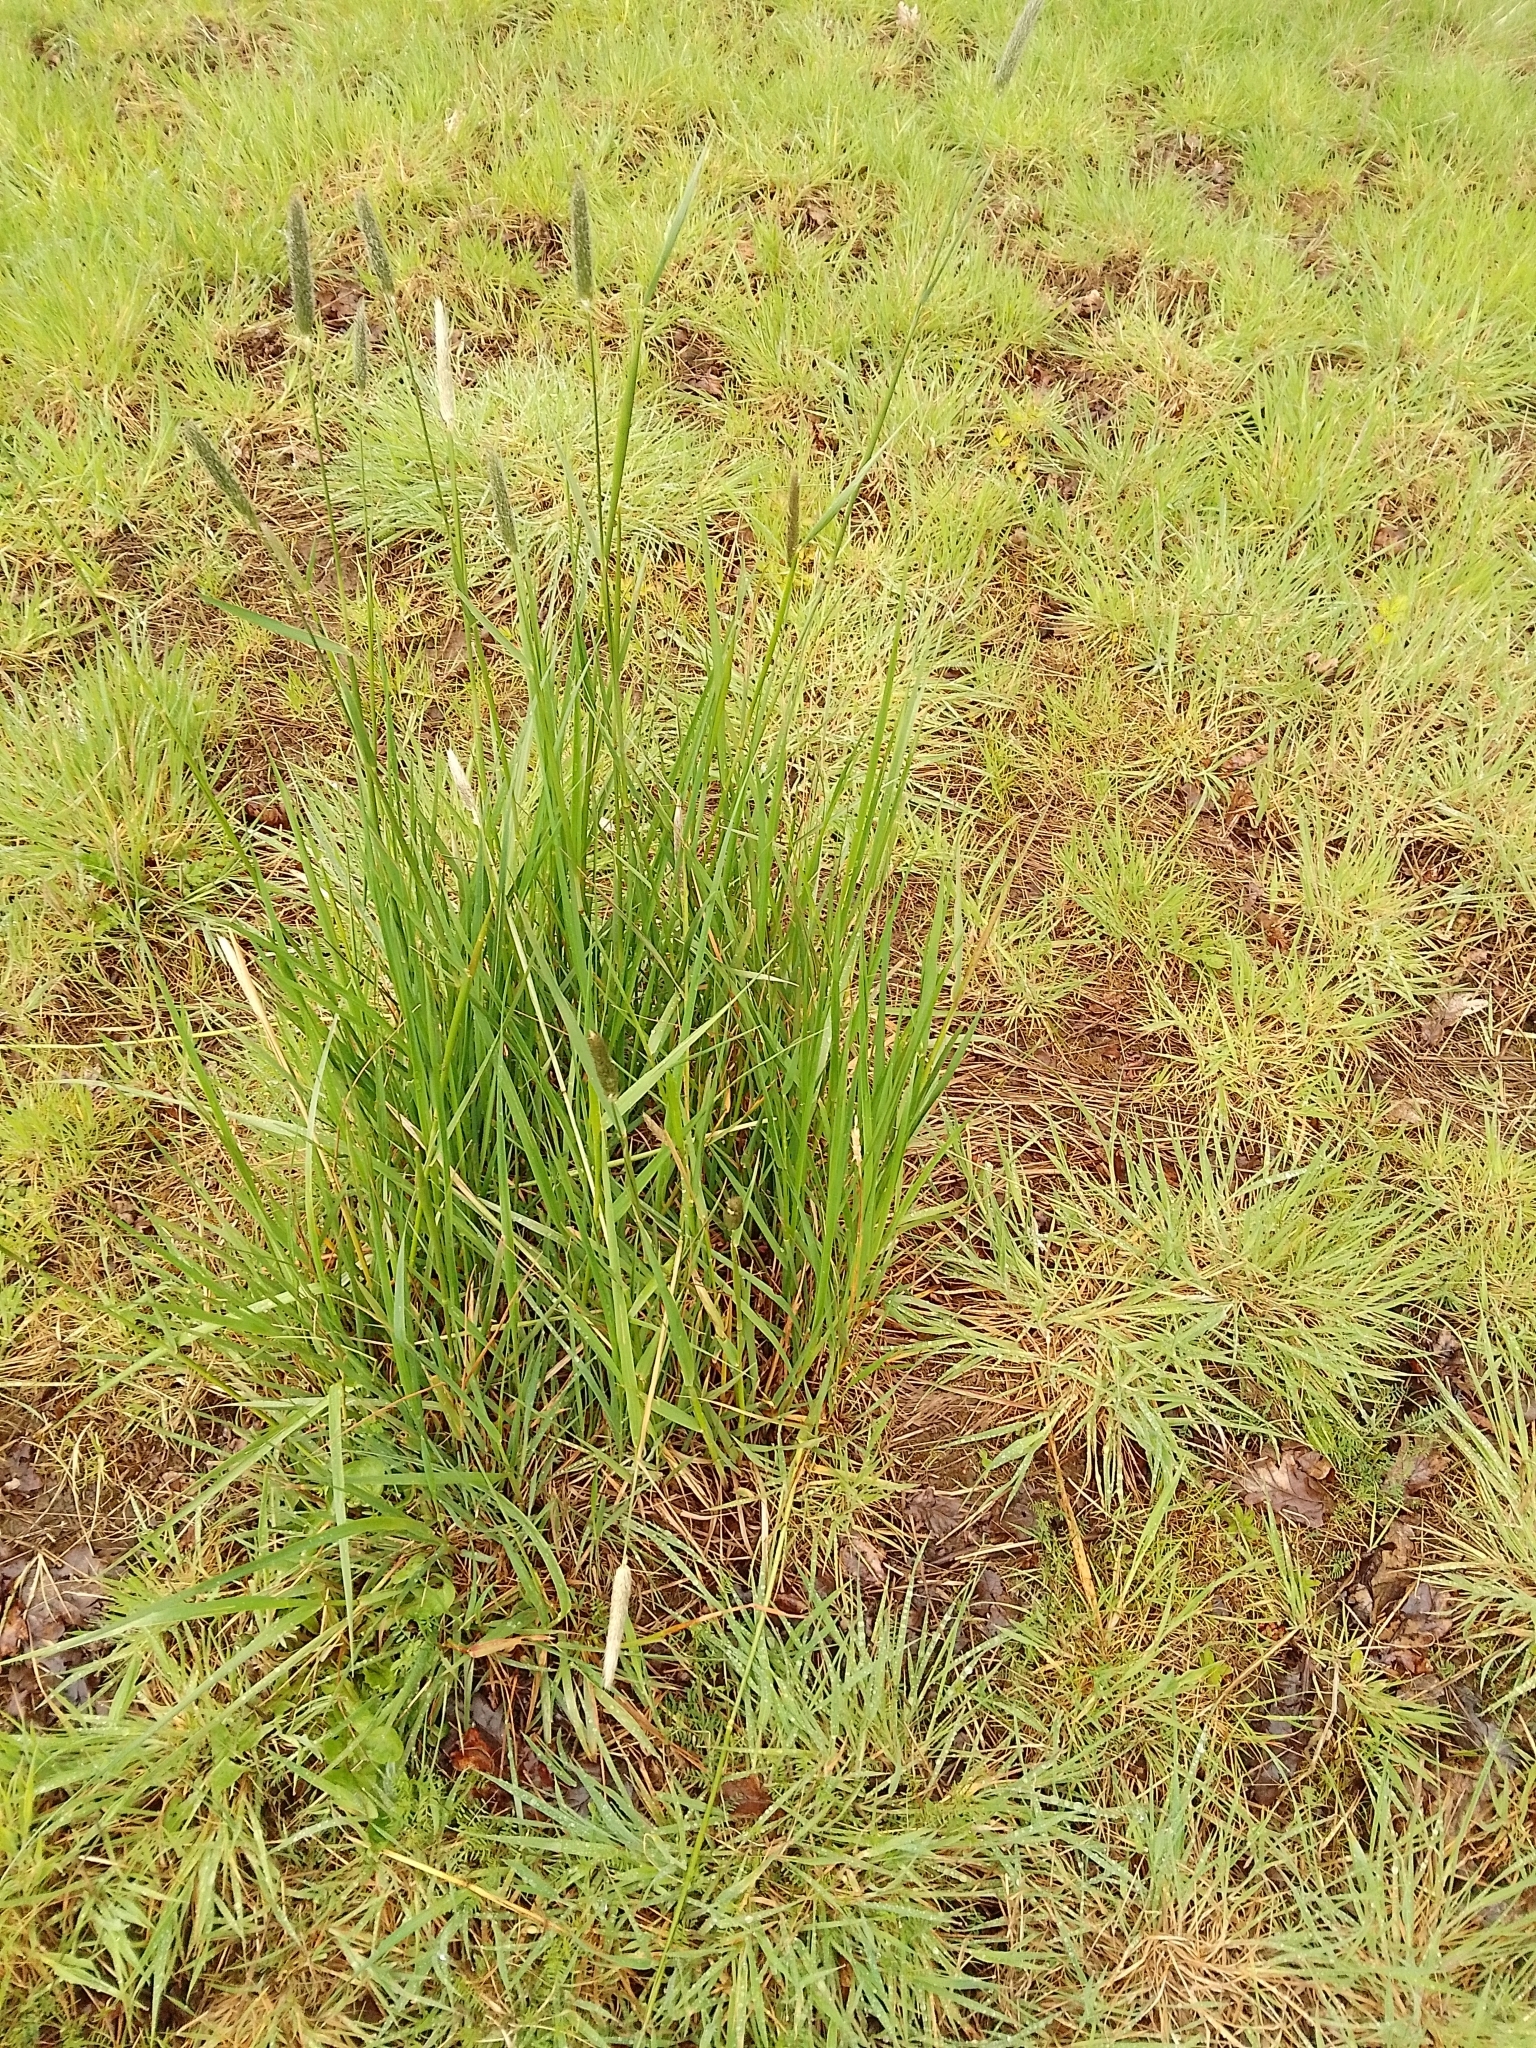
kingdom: Plantae
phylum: Tracheophyta
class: Liliopsida
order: Poales
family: Poaceae
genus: Alopecurus
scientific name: Alopecurus pratensis
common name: Meadow foxtail
